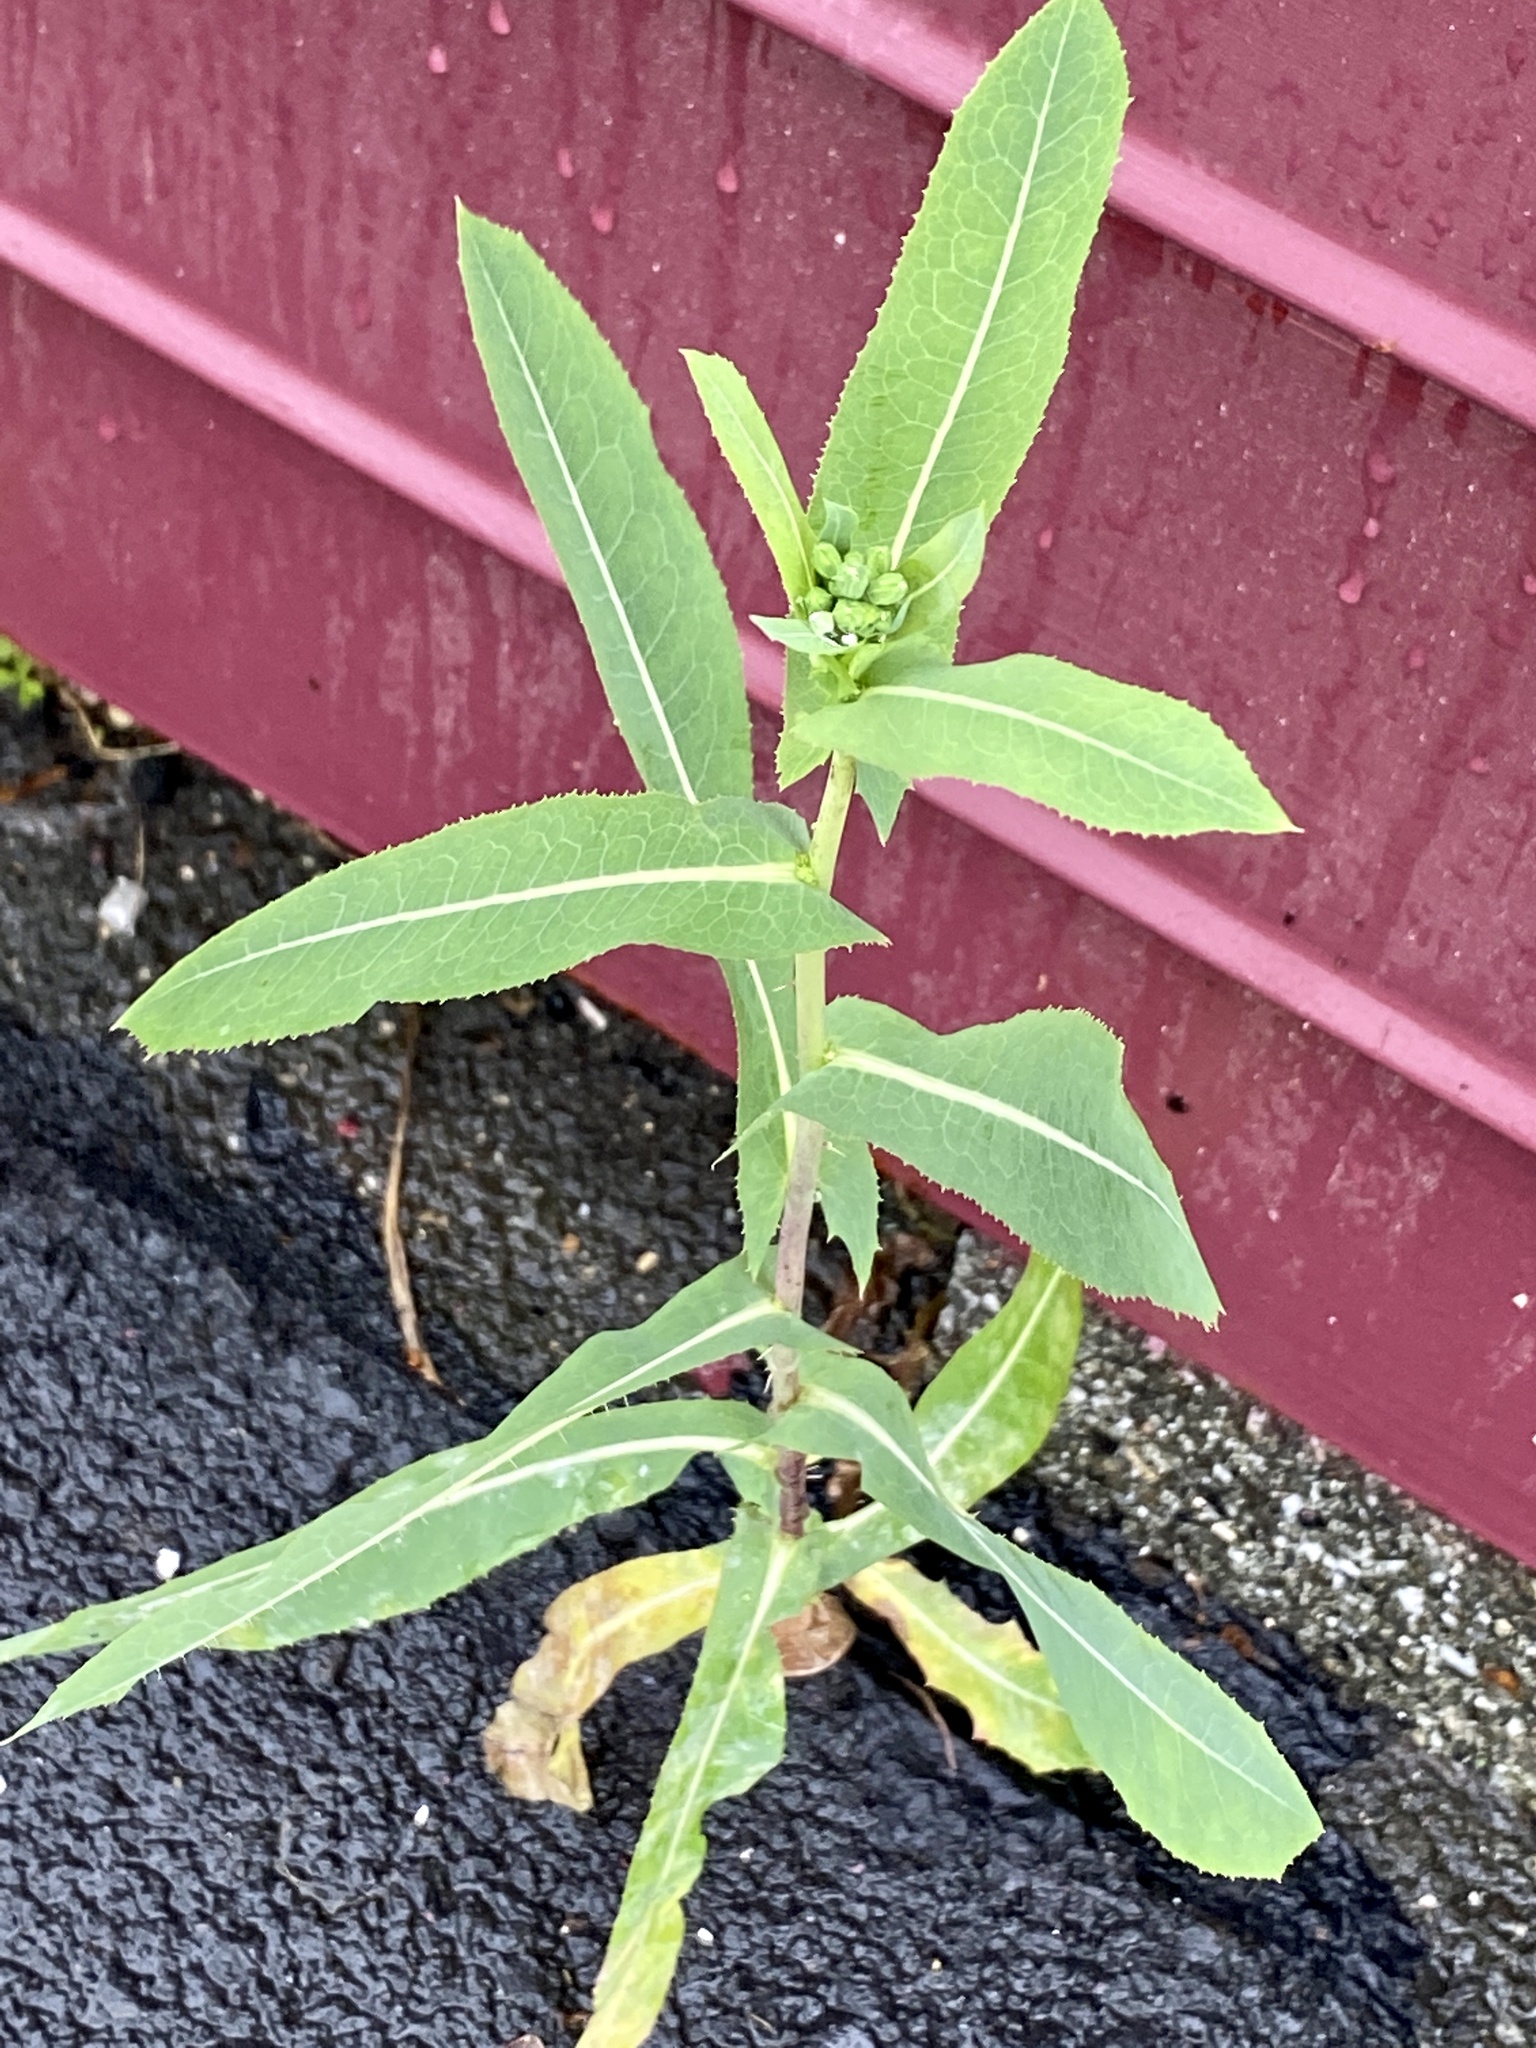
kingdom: Plantae
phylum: Tracheophyta
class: Magnoliopsida
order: Asterales
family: Asteraceae
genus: Lactuca
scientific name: Lactuca serriola
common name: Prickly lettuce
